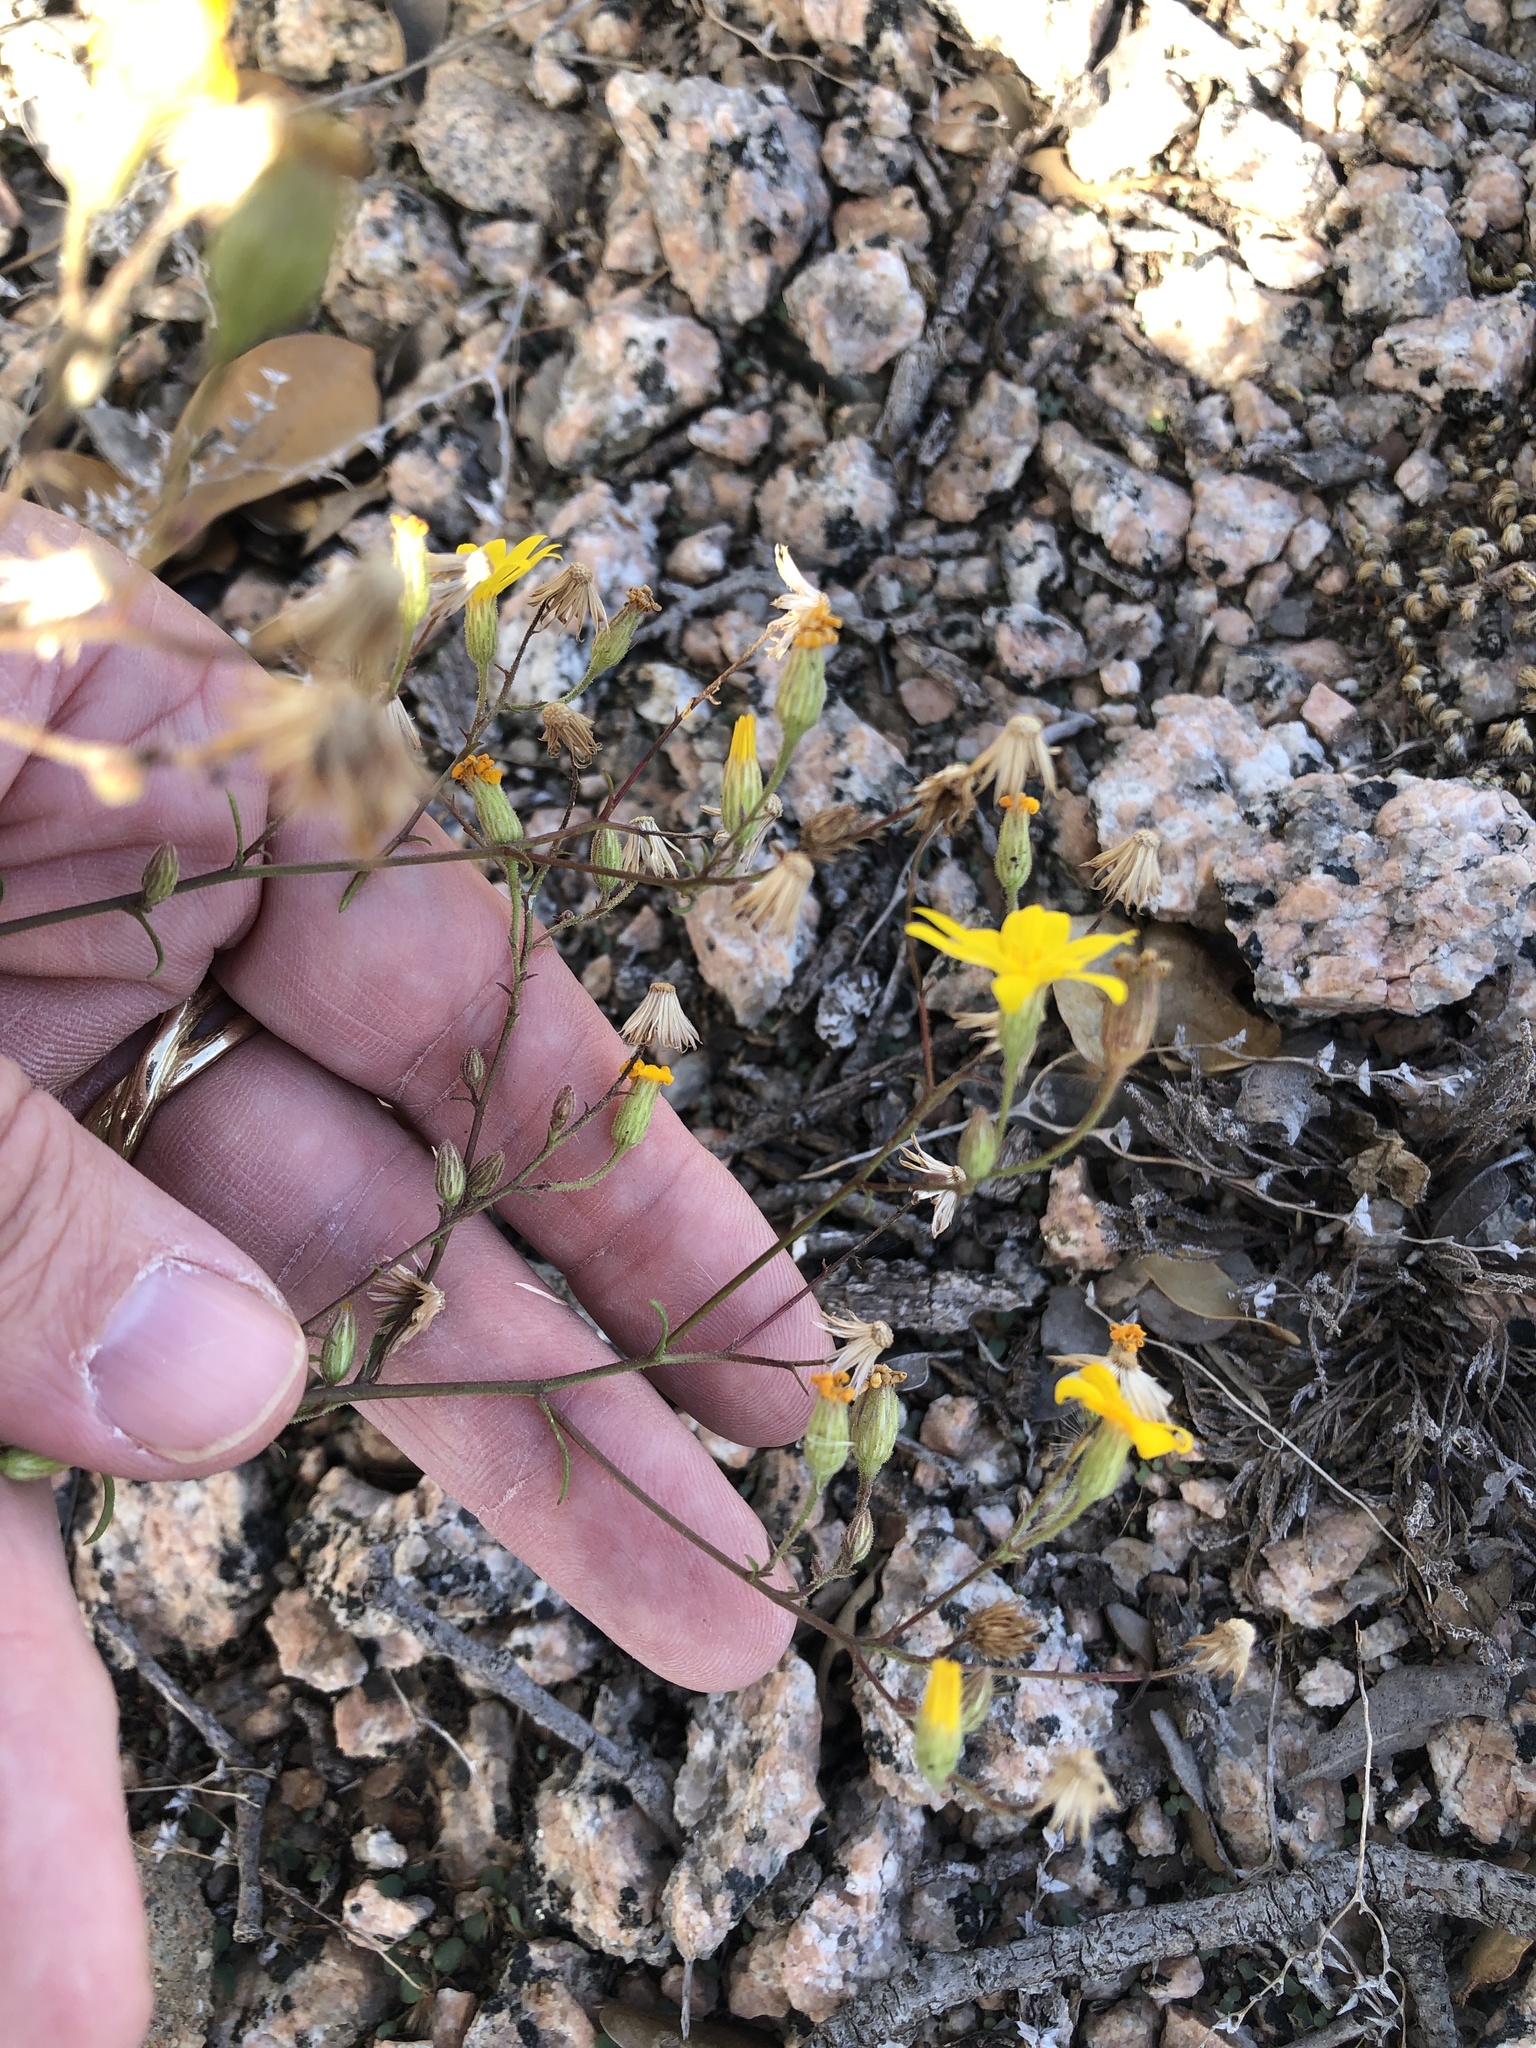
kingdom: Plantae
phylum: Tracheophyta
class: Magnoliopsida
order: Asterales
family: Asteraceae
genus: Croptilon
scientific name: Croptilon hookerianum
